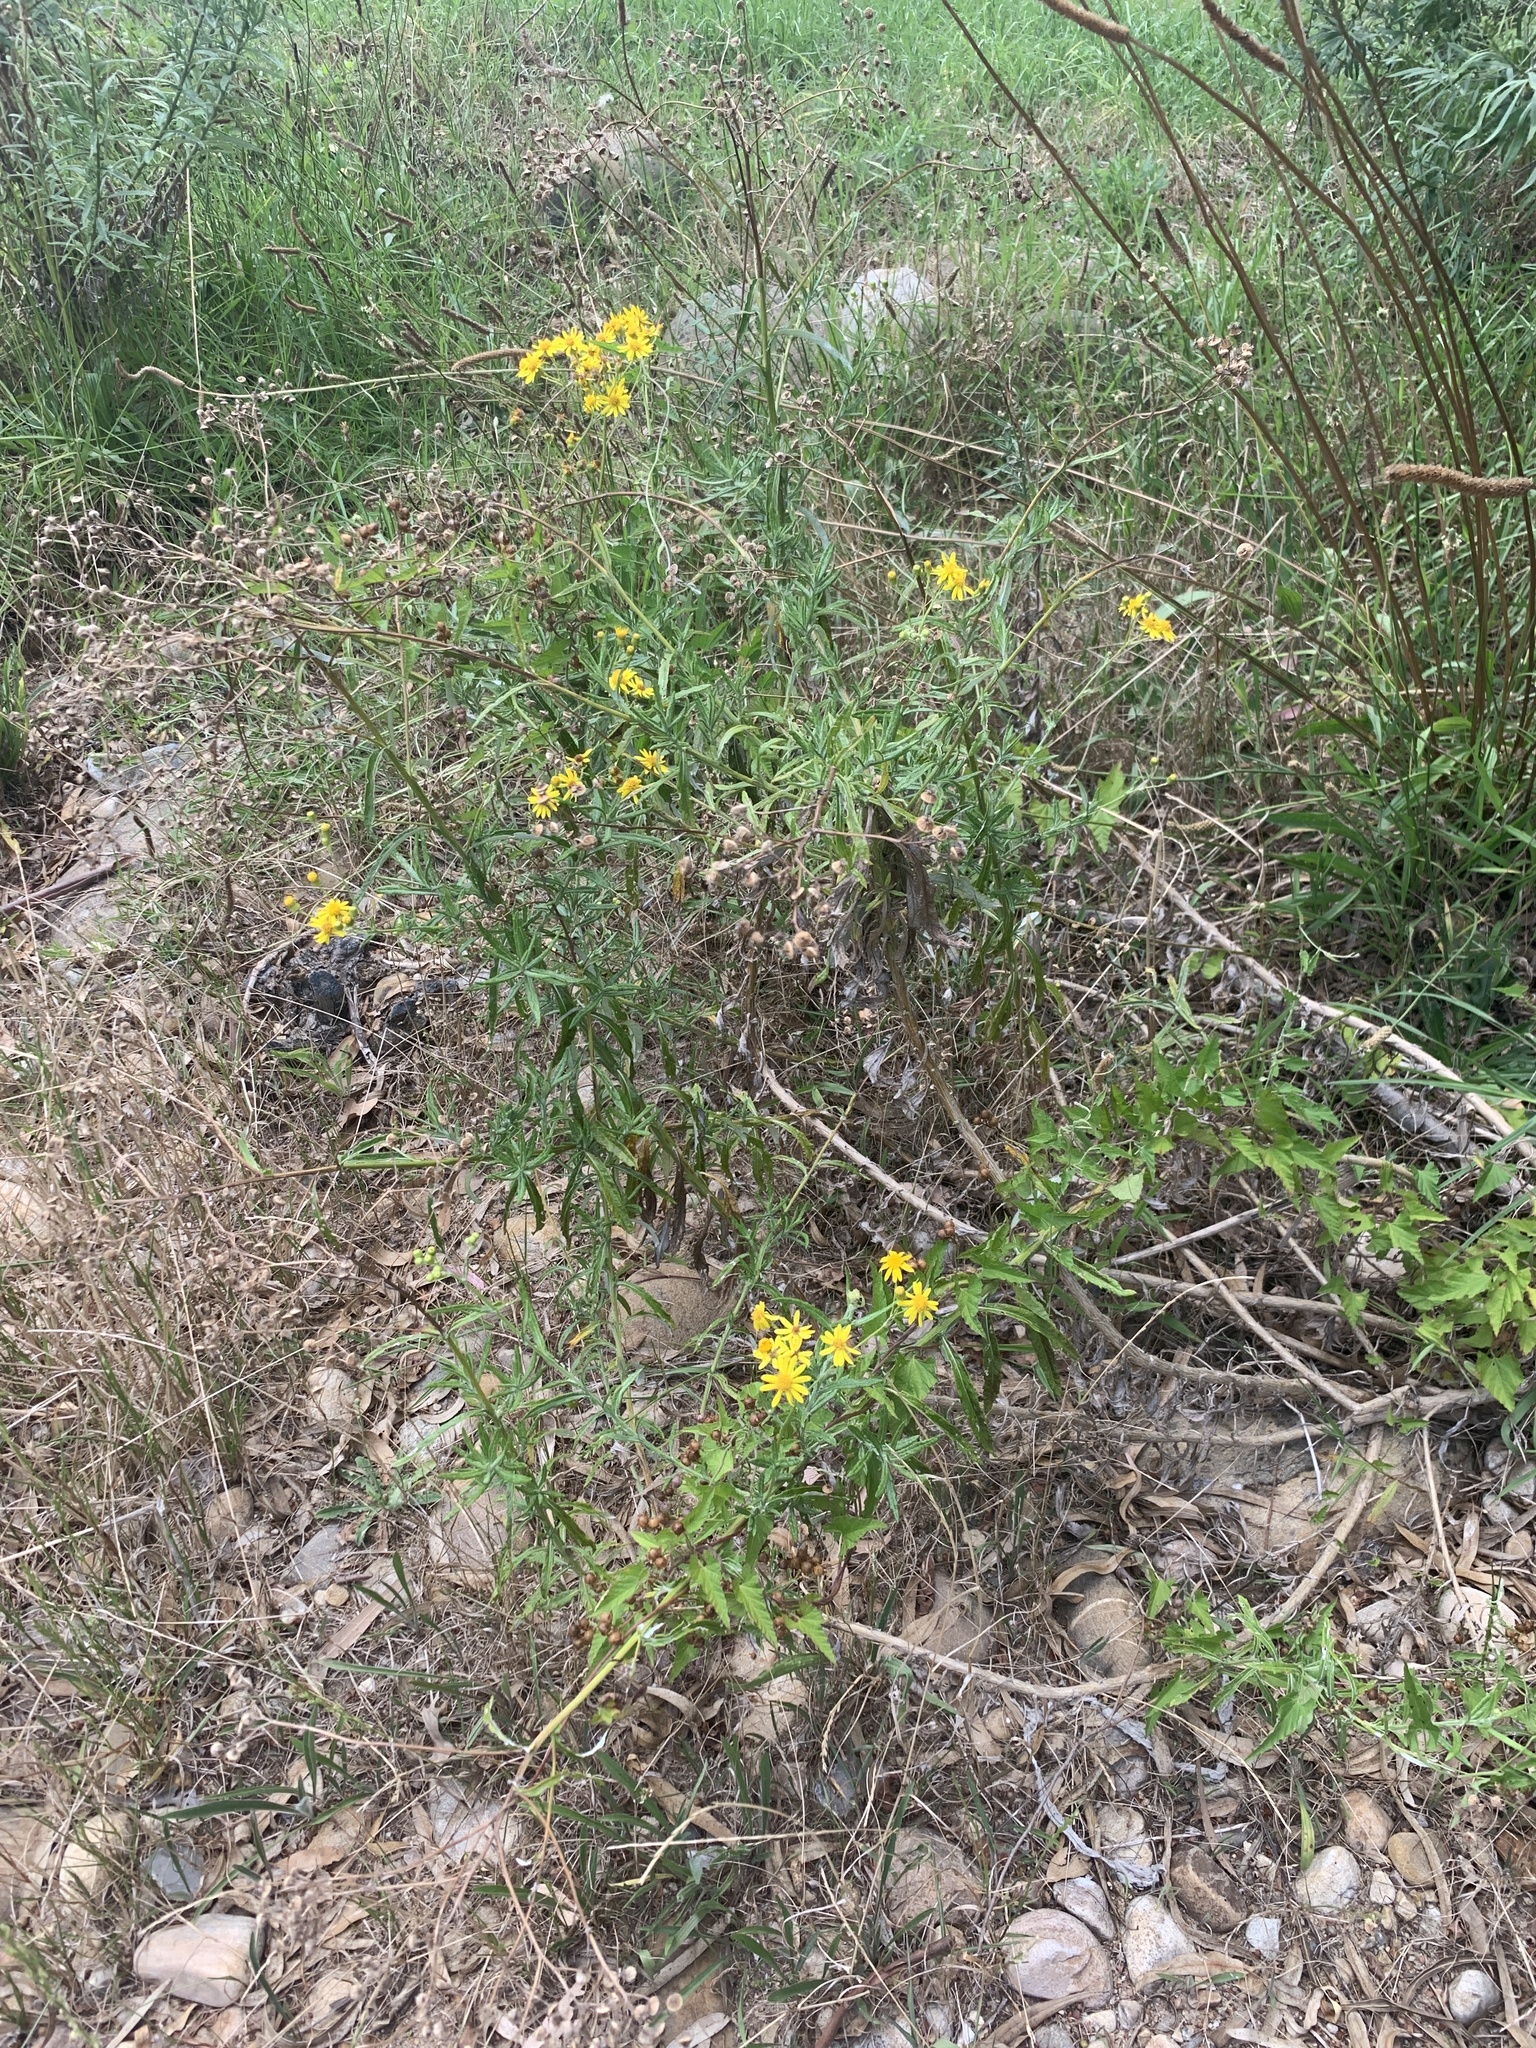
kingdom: Plantae
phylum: Tracheophyta
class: Magnoliopsida
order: Asterales
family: Asteraceae
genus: Senecio
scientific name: Senecio pterophorus
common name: Shoddy ragwort
